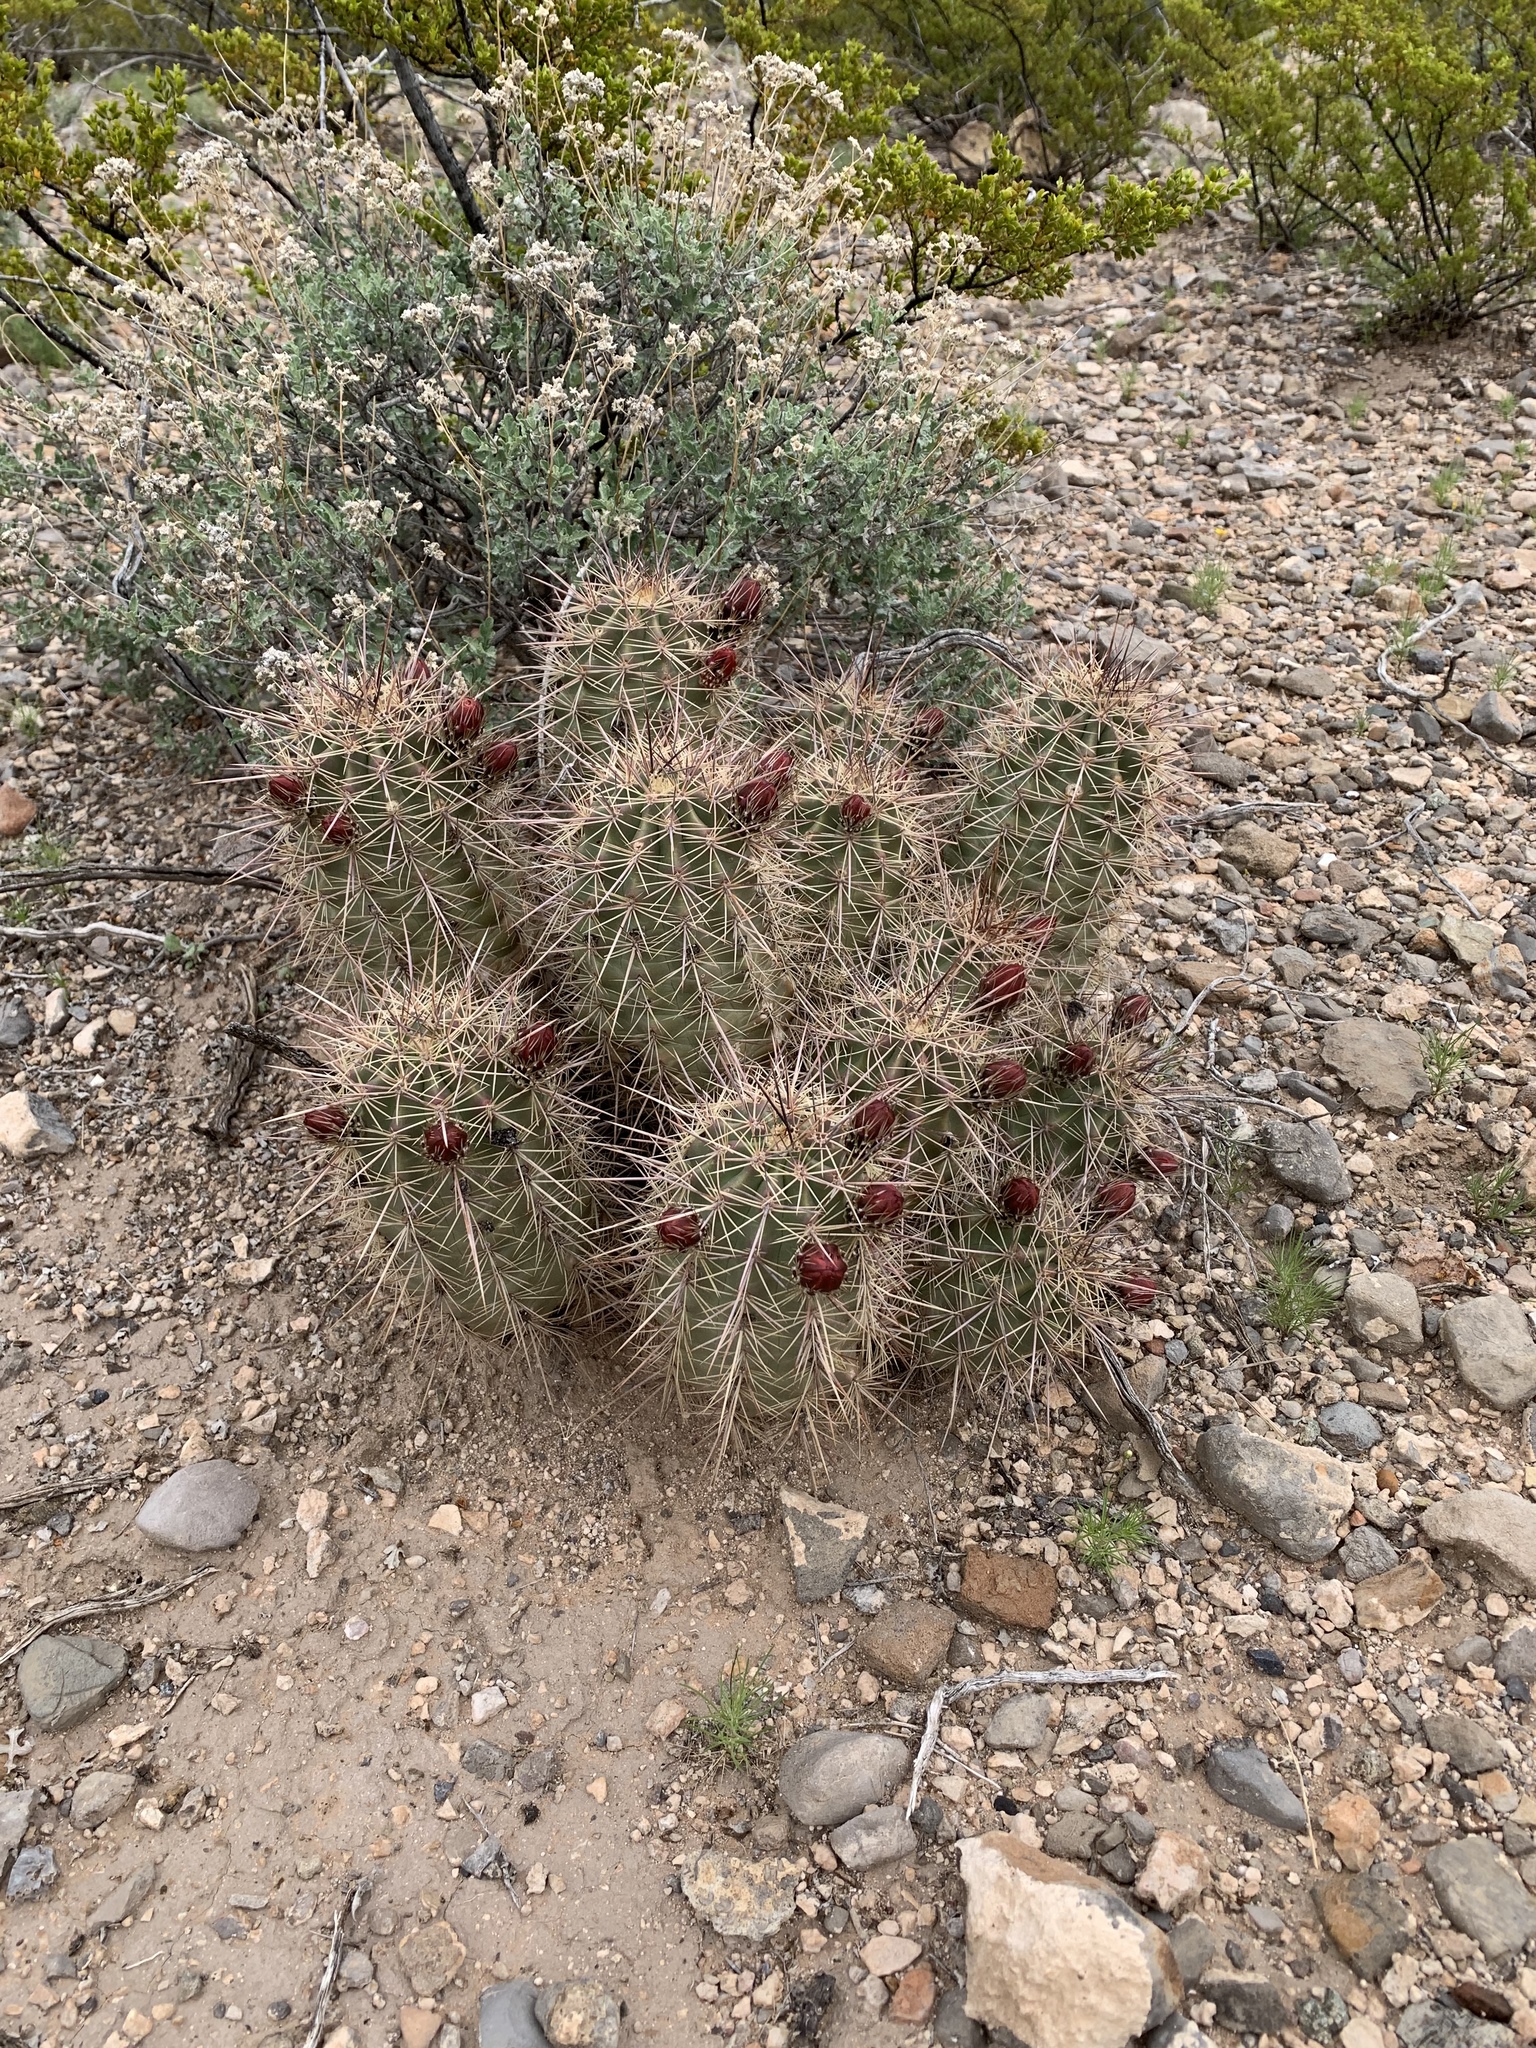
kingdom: Plantae
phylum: Tracheophyta
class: Magnoliopsida
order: Caryophyllales
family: Cactaceae
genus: Echinocereus
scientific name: Echinocereus coccineus
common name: Scarlet hedgehog cactus
